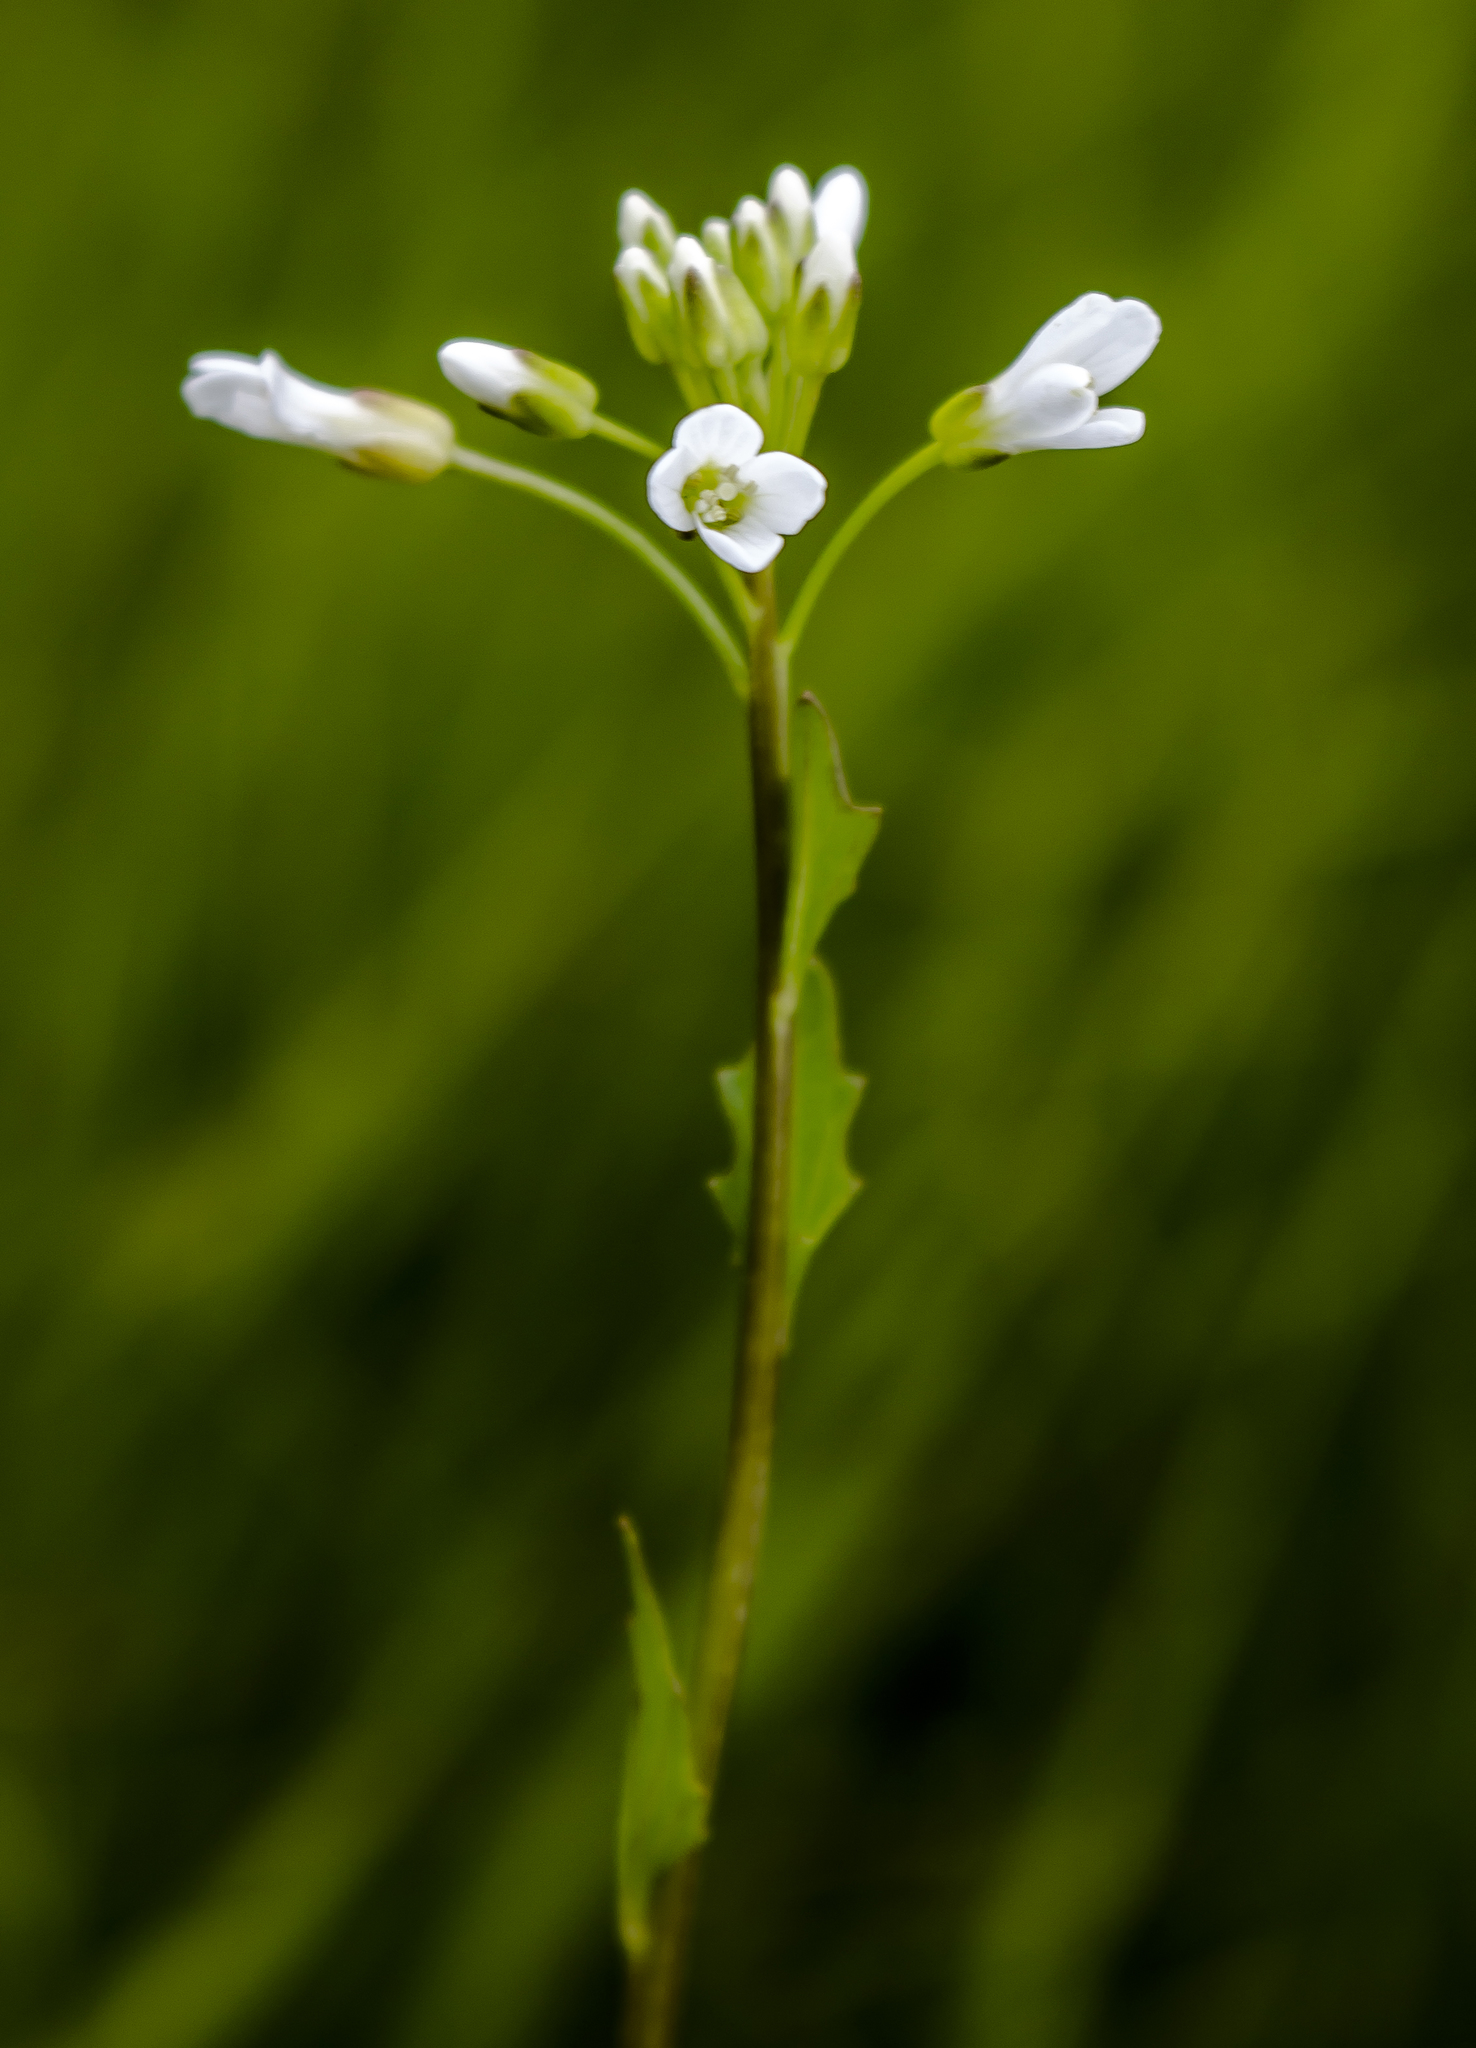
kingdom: Plantae
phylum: Tracheophyta
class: Magnoliopsida
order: Brassicales
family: Brassicaceae
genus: Cardamine
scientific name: Cardamine bulbosa
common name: Spring cress
